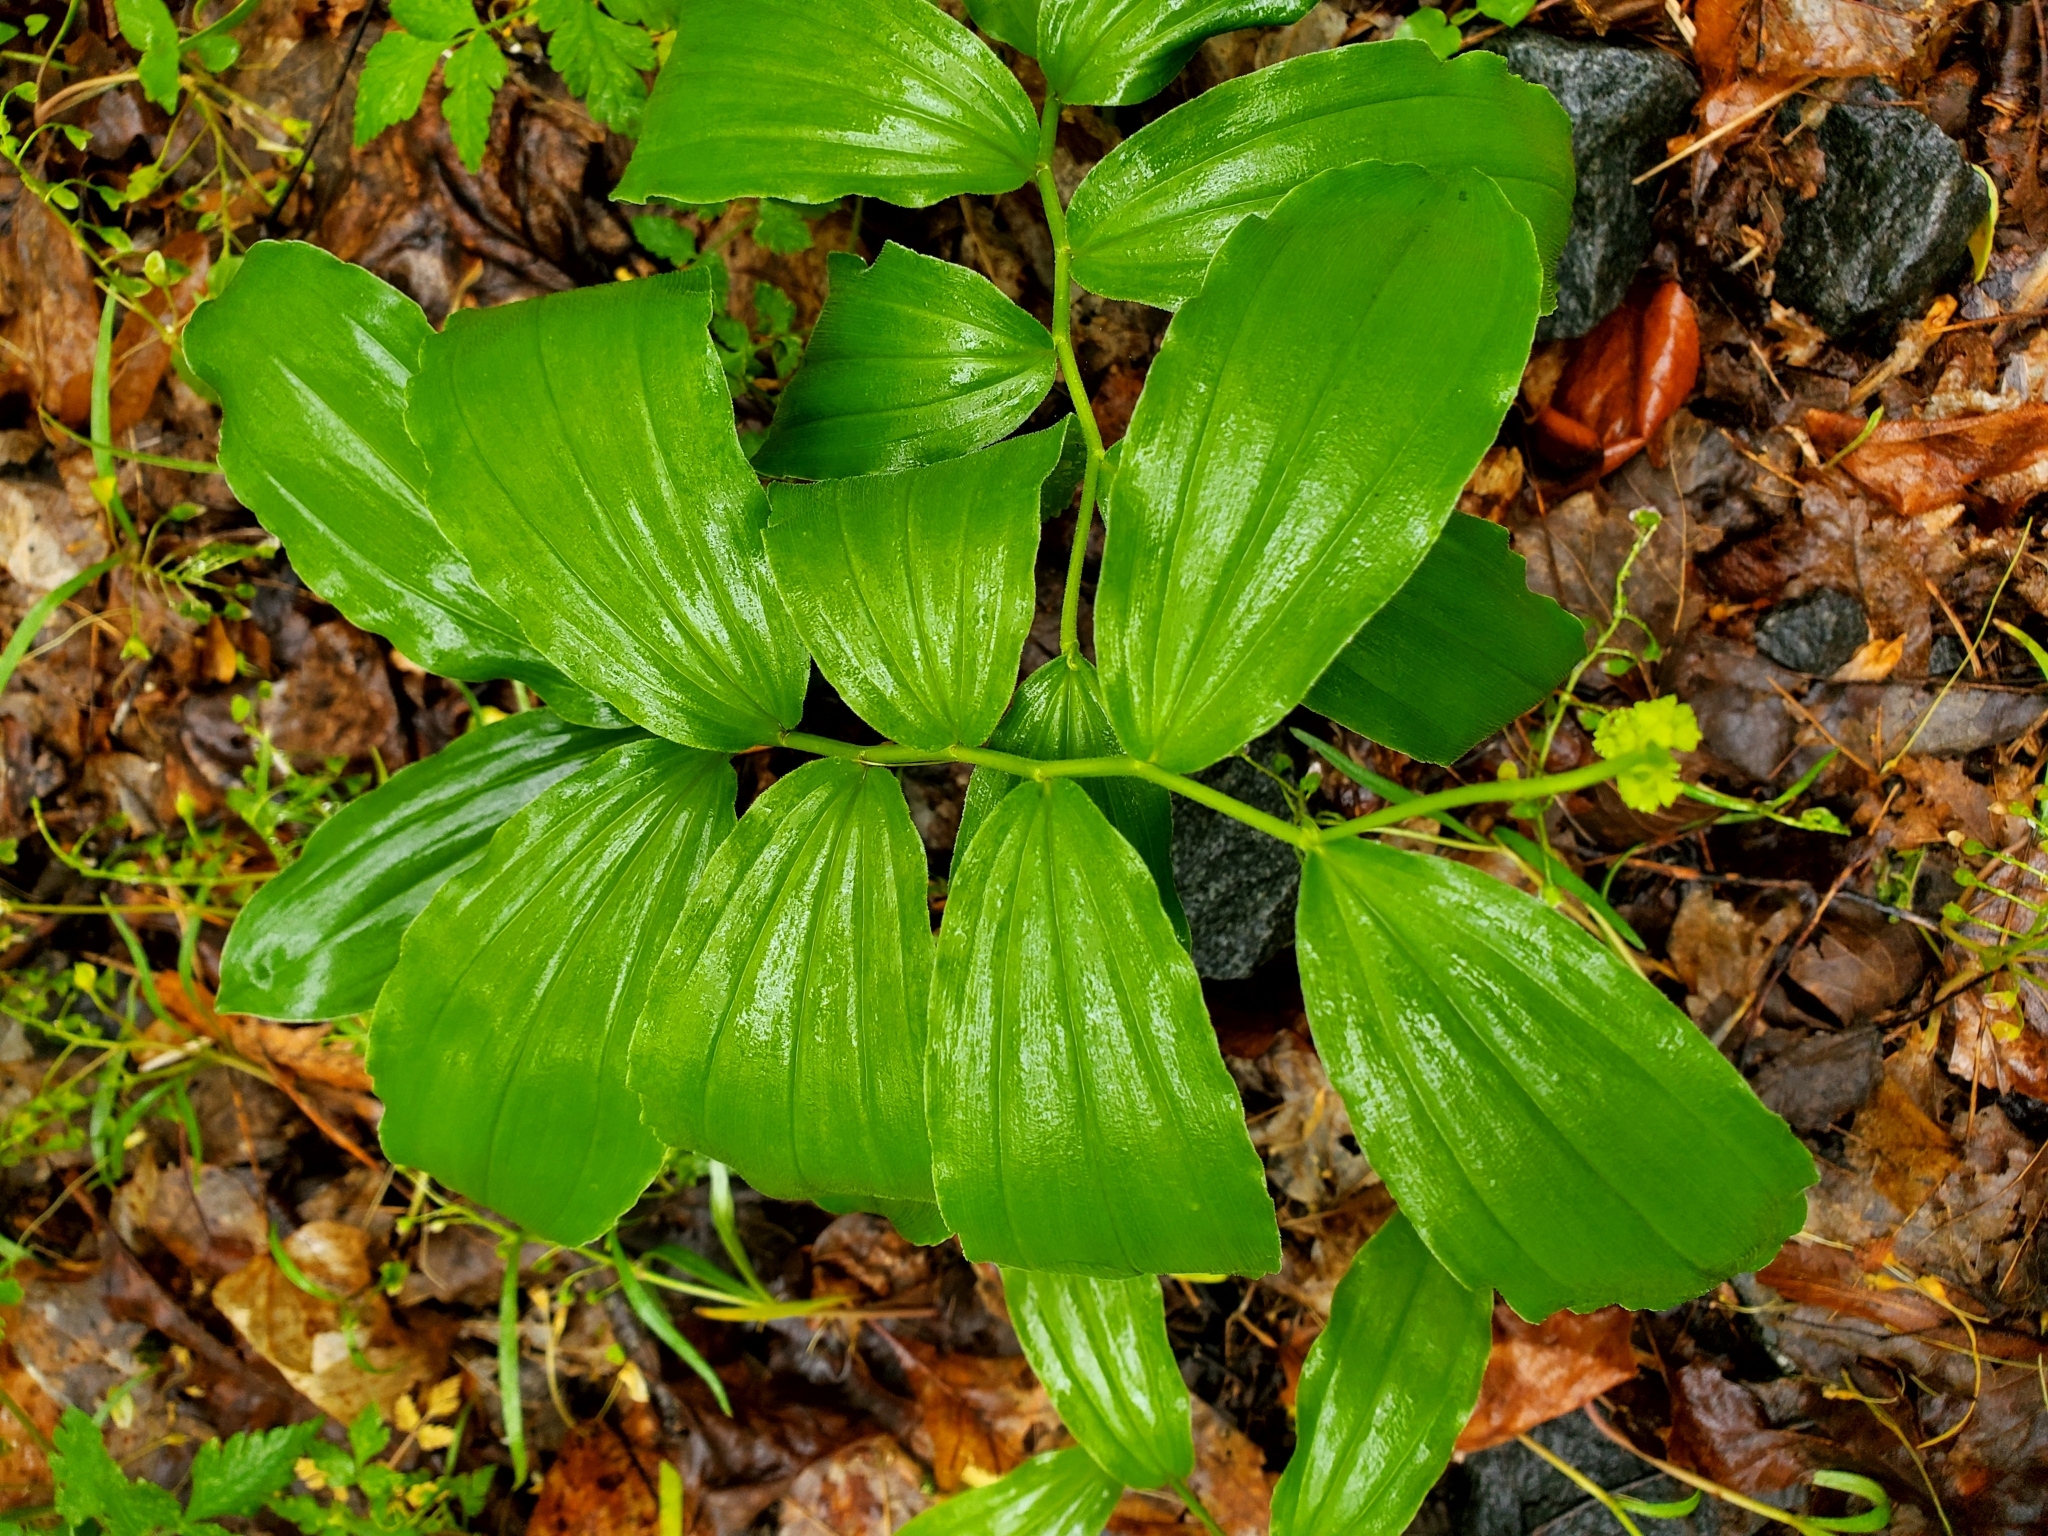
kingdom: Plantae
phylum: Tracheophyta
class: Liliopsida
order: Asparagales
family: Asparagaceae
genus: Maianthemum
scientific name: Maianthemum racemosum
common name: False spikenard
